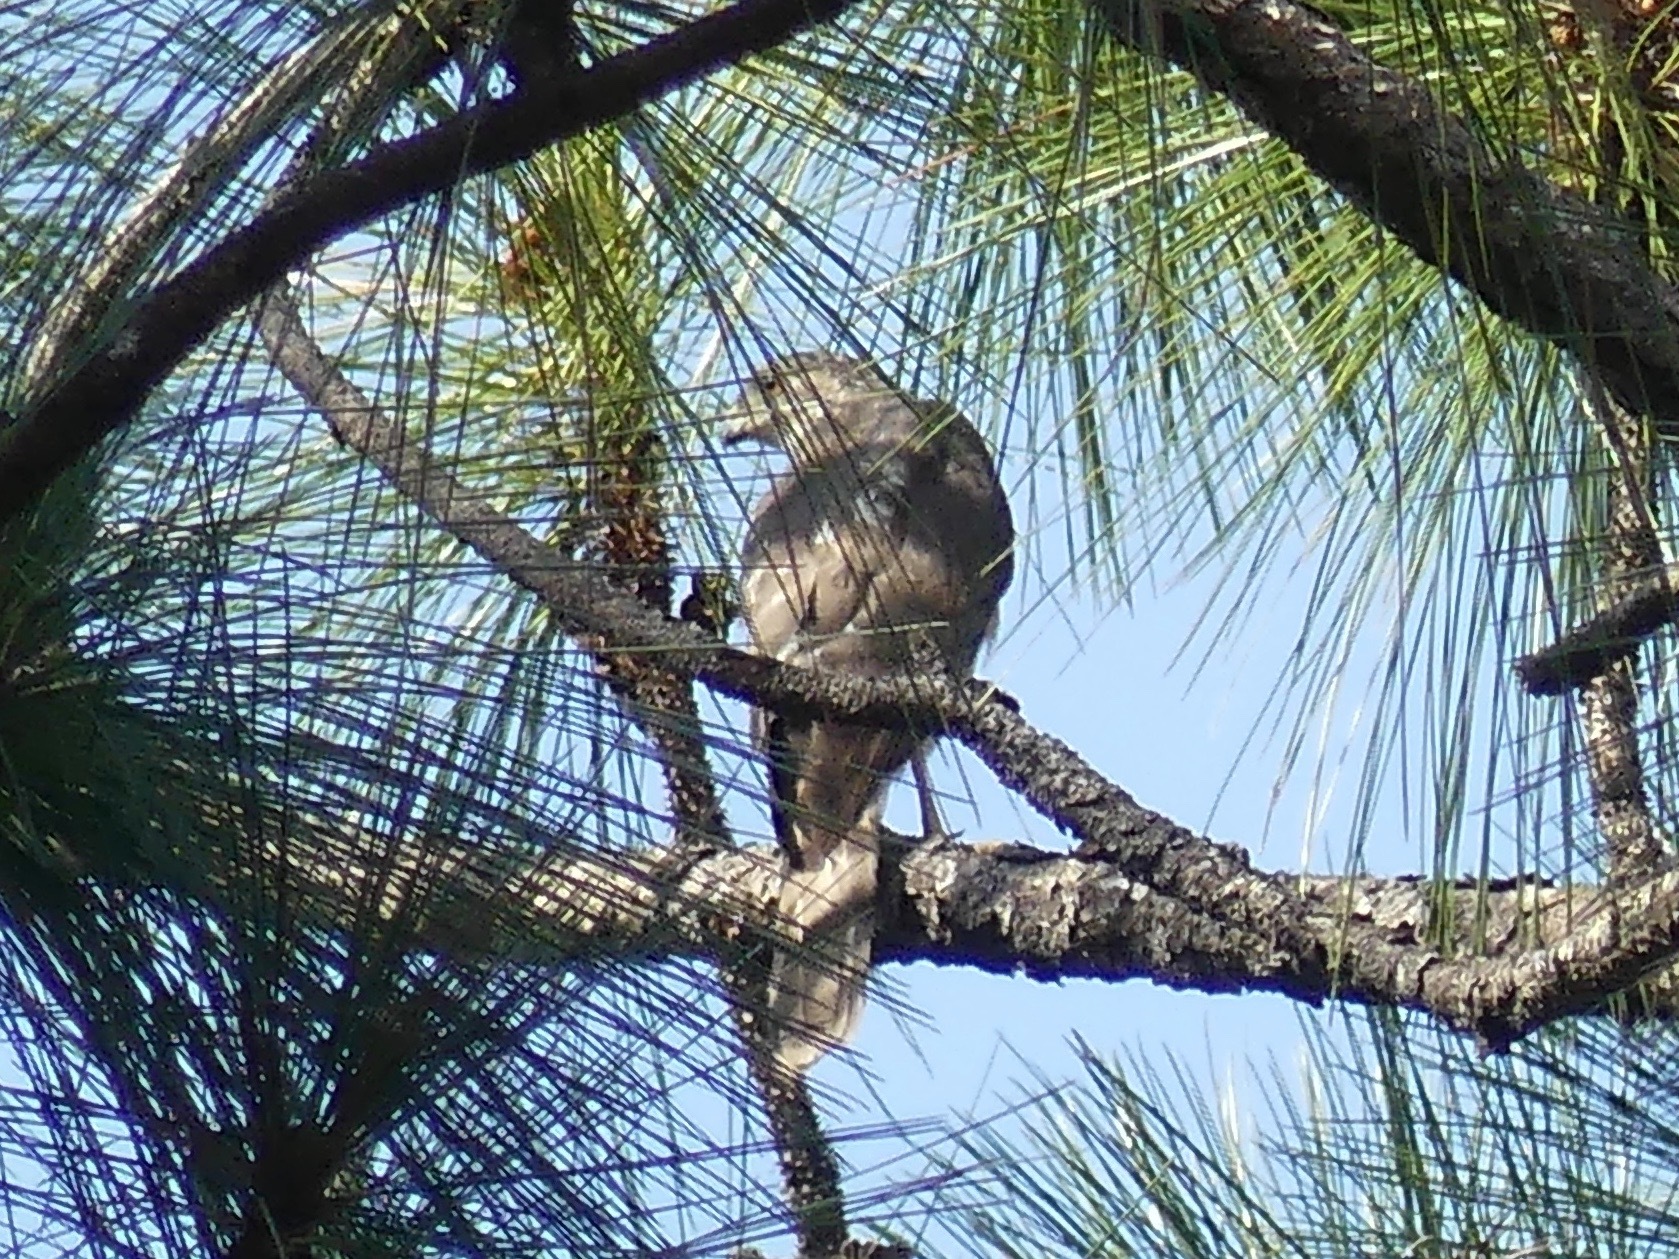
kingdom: Animalia
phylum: Chordata
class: Aves
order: Accipitriformes
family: Accipitridae
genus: Accipiter
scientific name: Accipiter cooperii
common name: Cooper's hawk
